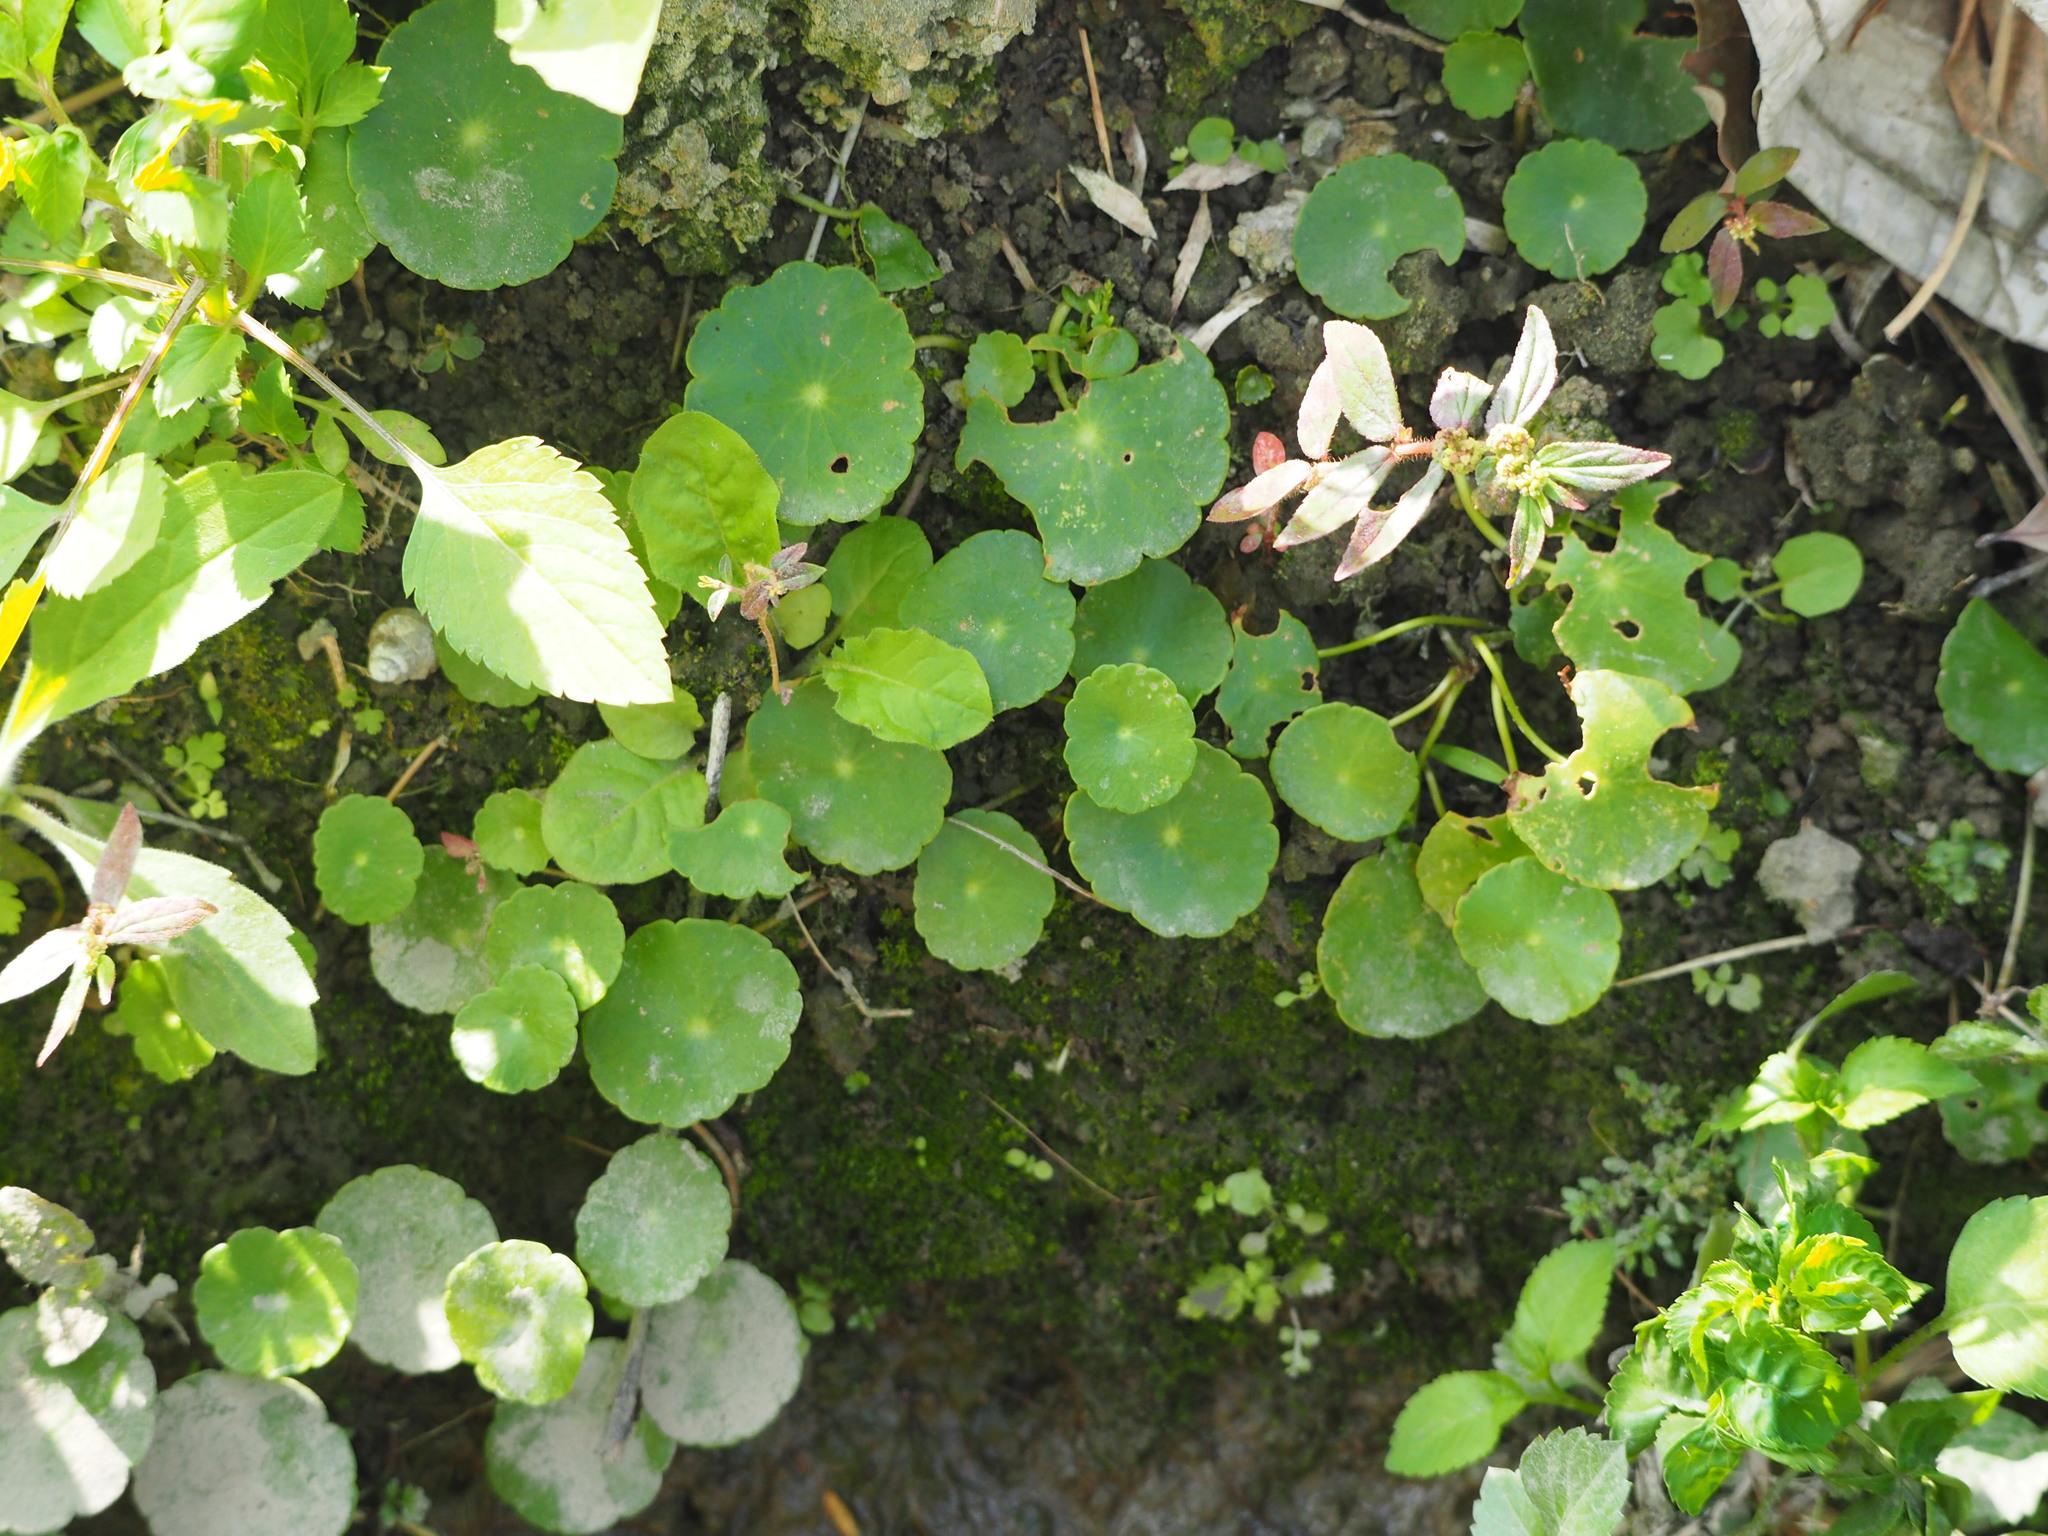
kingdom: Plantae
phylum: Tracheophyta
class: Magnoliopsida
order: Apiales
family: Araliaceae
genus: Hydrocotyle
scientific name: Hydrocotyle verticillata
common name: Whorled marshpennywort
